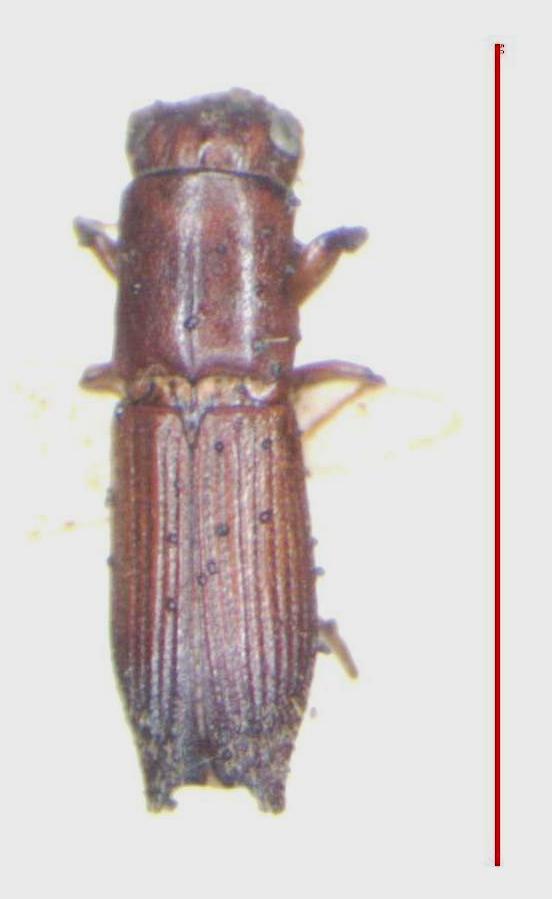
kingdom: Animalia
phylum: Arthropoda
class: Insecta
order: Coleoptera
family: Curculionidae
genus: Euplatypus
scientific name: Euplatypus parallelus
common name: Weevil
